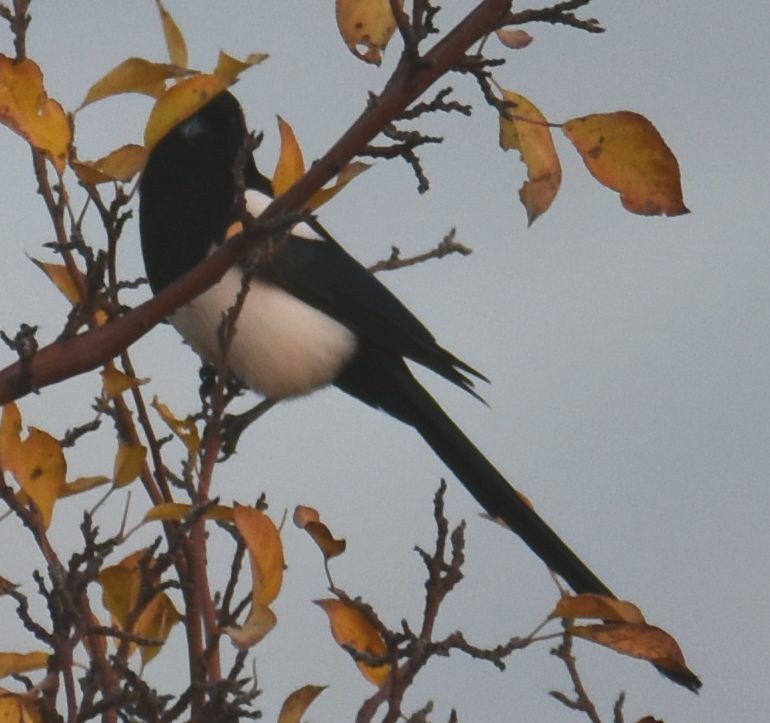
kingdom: Animalia
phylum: Chordata
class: Aves
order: Passeriformes
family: Corvidae
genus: Pica
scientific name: Pica hudsonia
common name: Black-billed magpie
